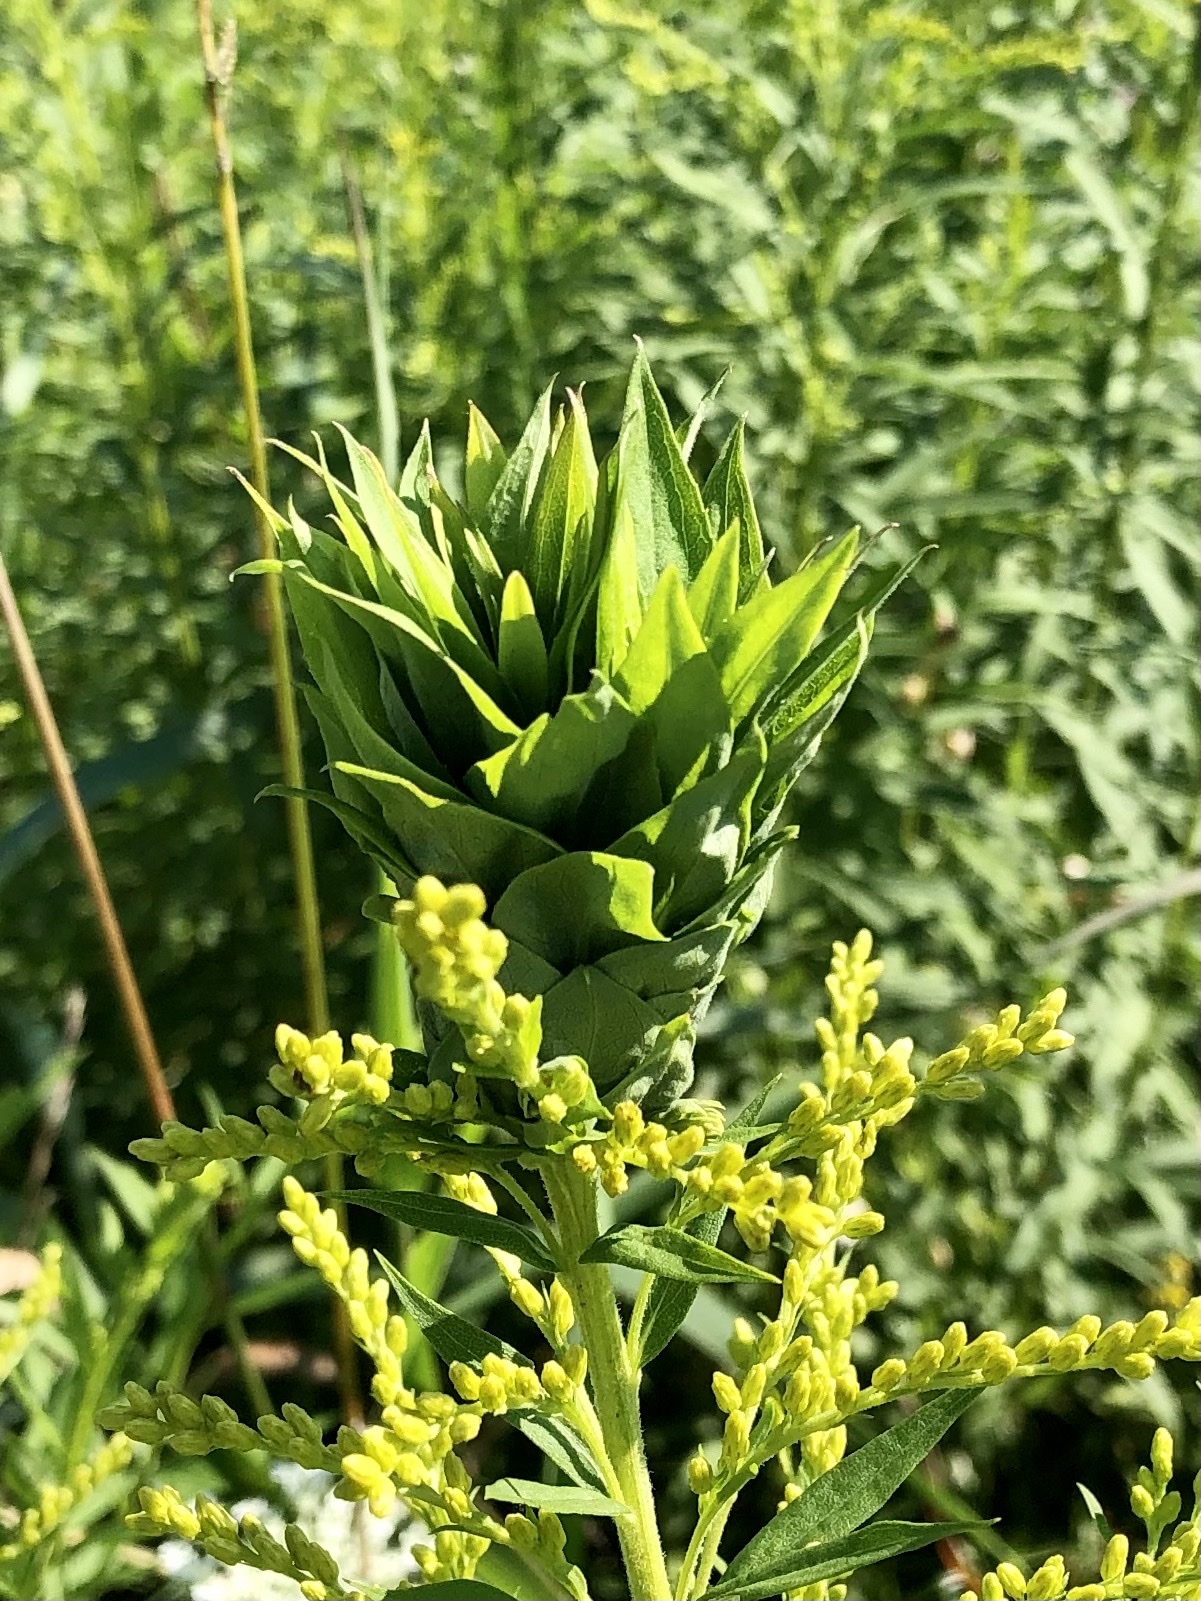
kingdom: Animalia
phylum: Arthropoda
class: Insecta
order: Diptera
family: Cecidomyiidae
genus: Rhopalomyia
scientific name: Rhopalomyia solidaginis
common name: Goldenrod bunch gall midge
